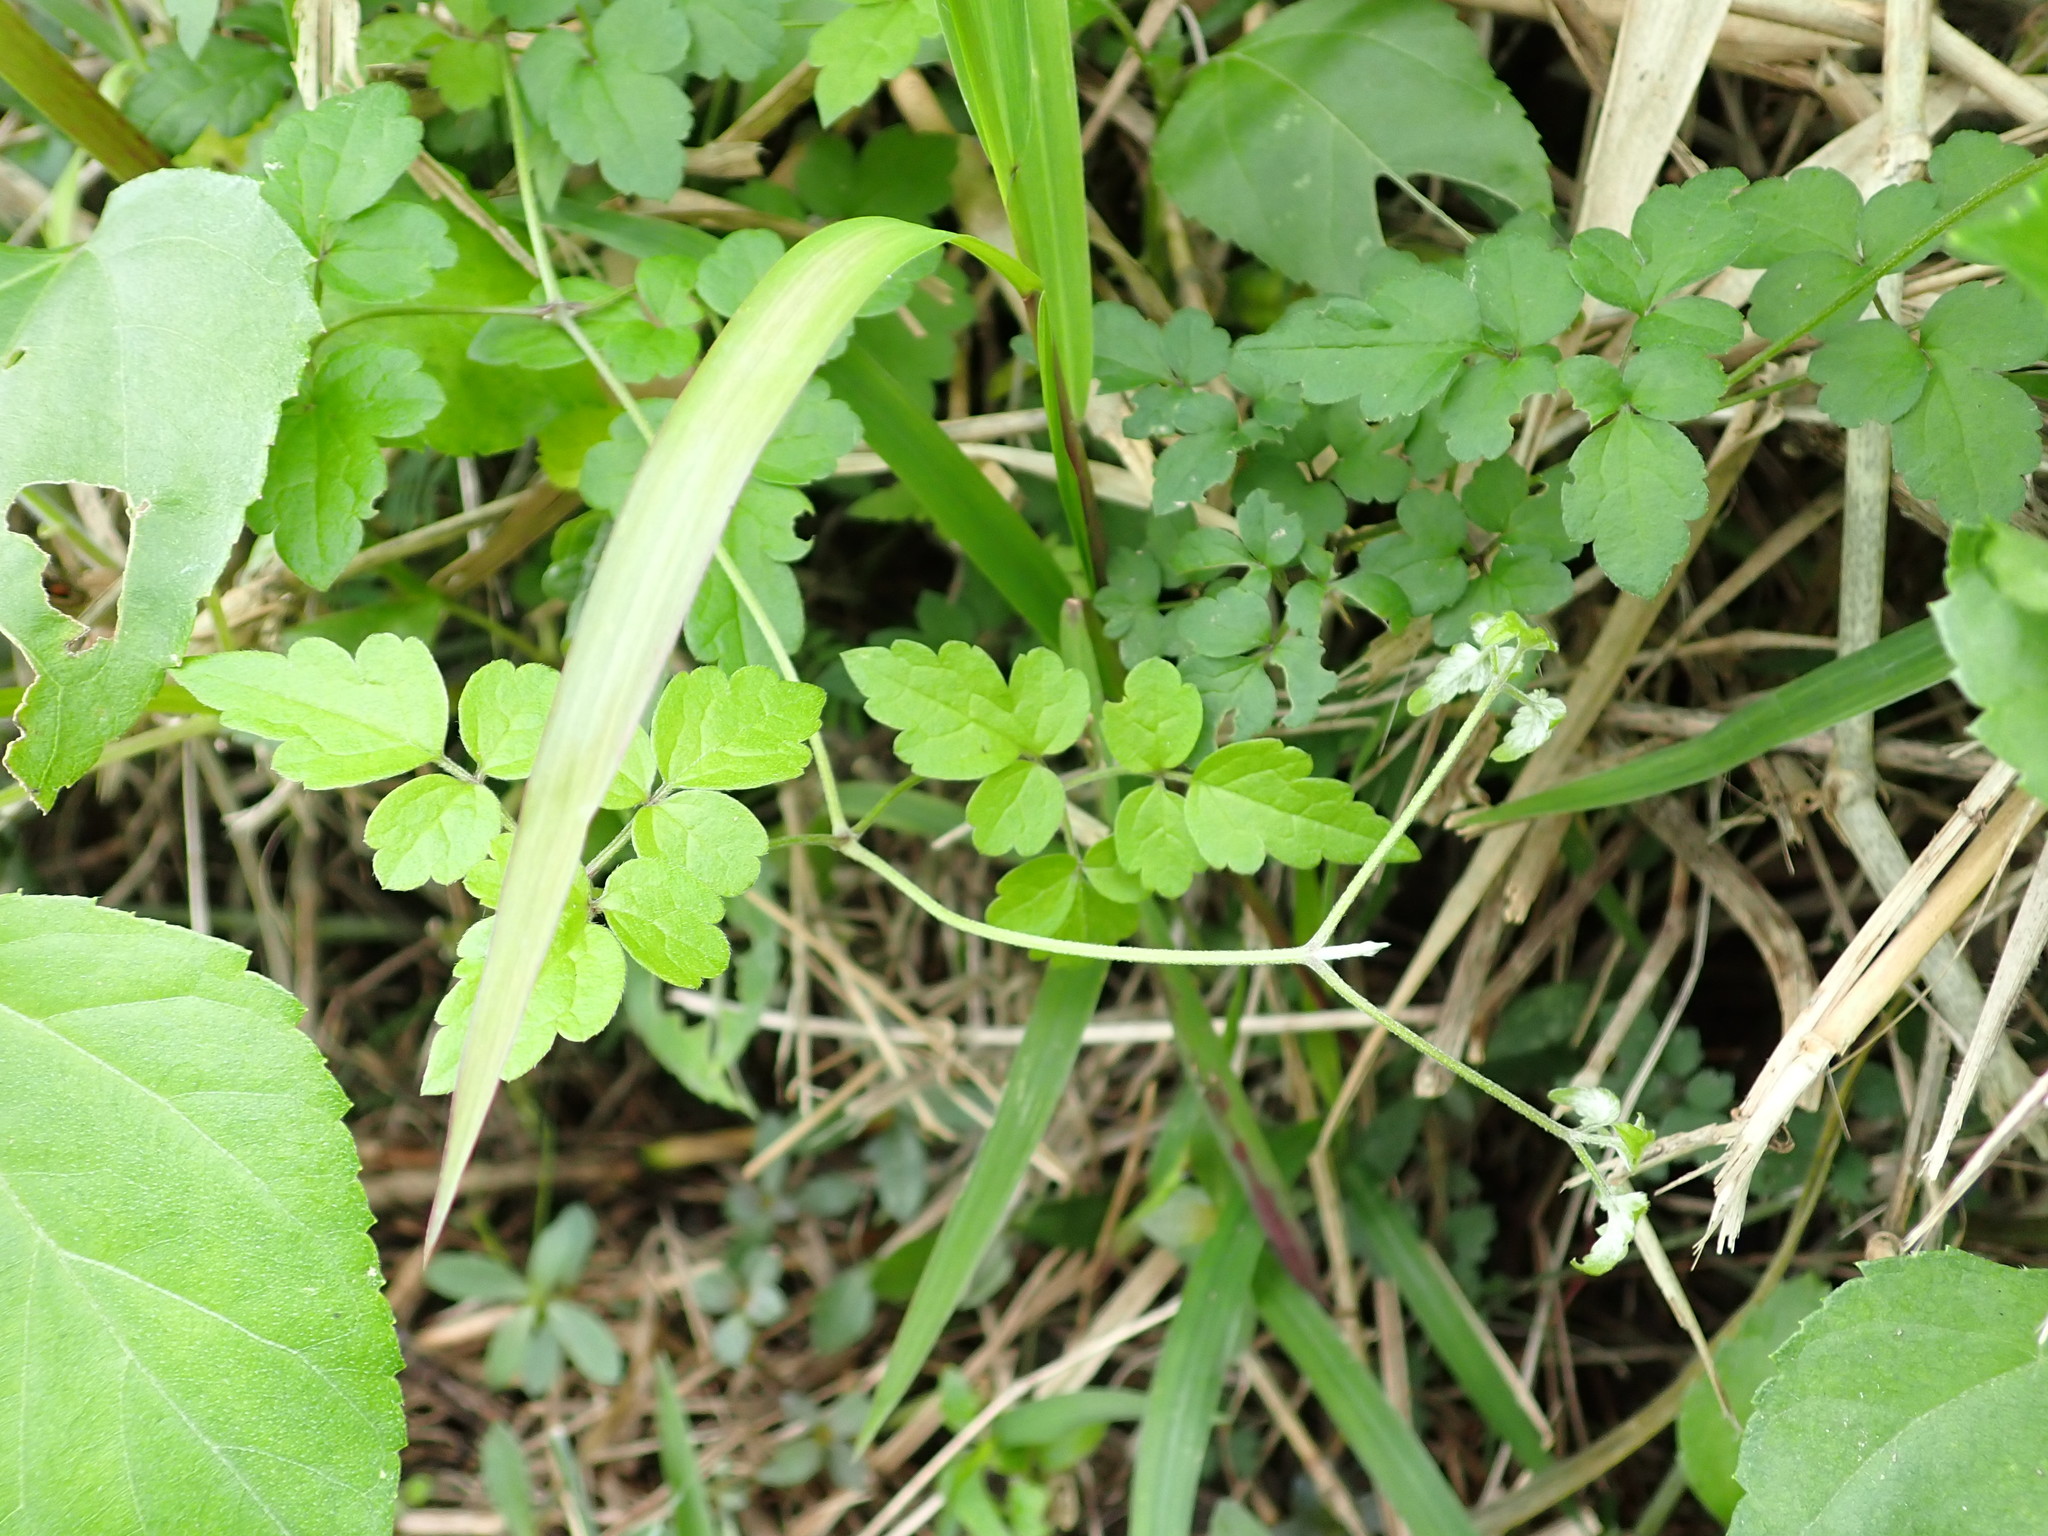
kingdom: Plantae
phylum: Tracheophyta
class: Magnoliopsida
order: Ranunculales
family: Ranunculaceae
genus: Clematis
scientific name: Clematis grata
